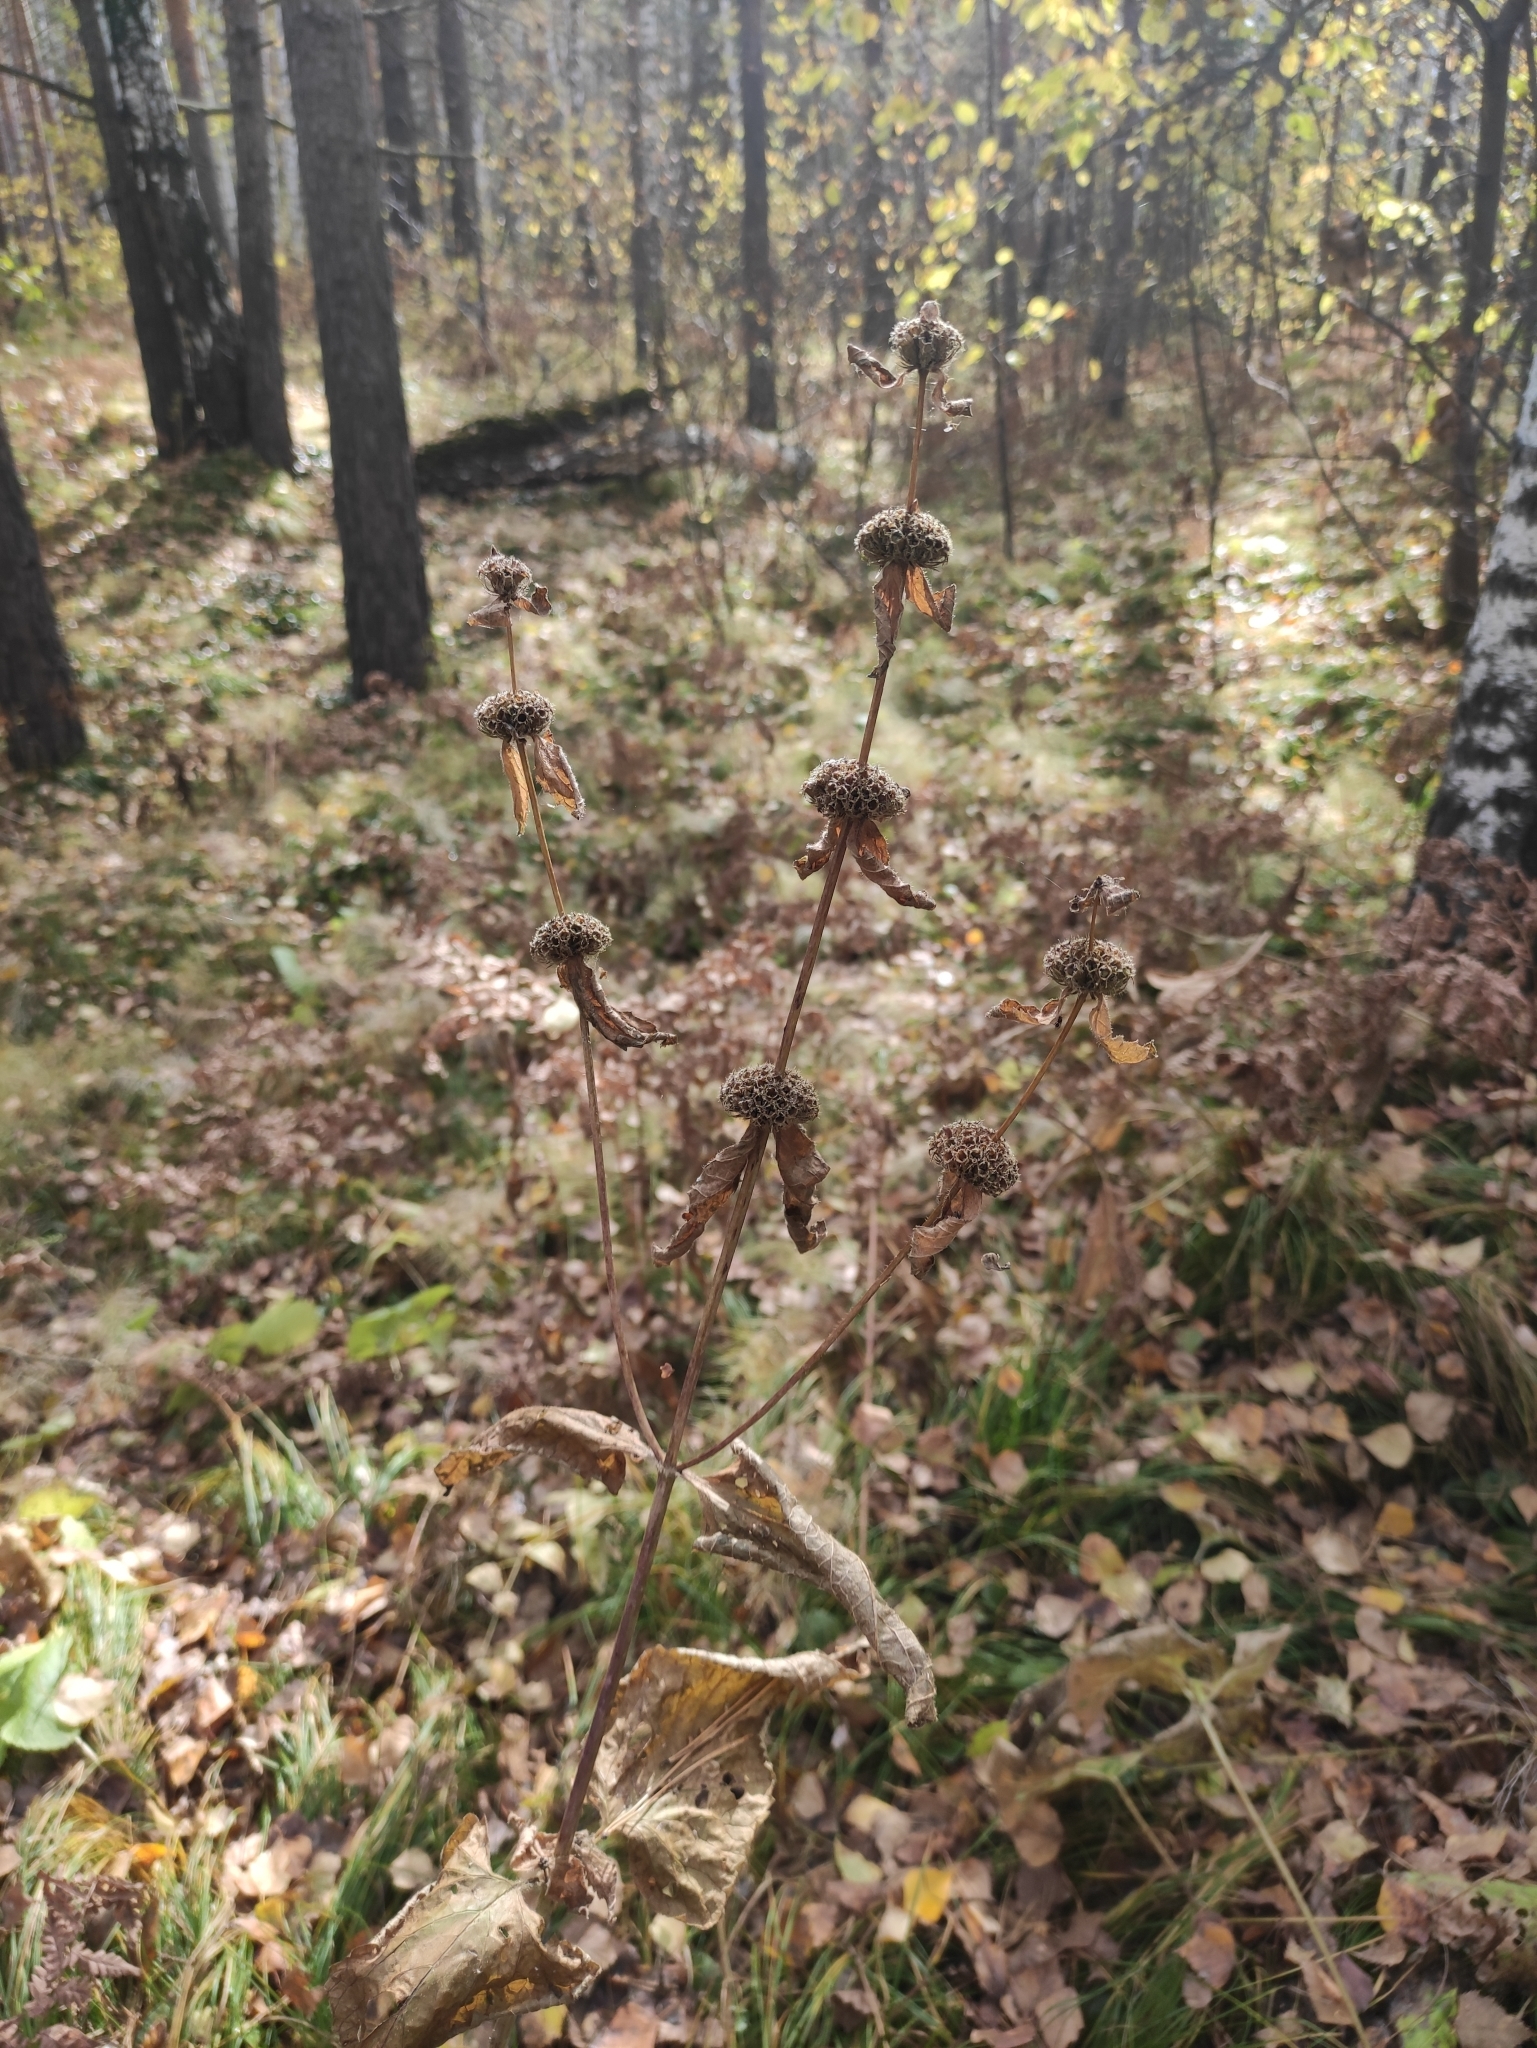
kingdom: Plantae
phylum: Tracheophyta
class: Magnoliopsida
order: Lamiales
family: Lamiaceae
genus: Phlomoides
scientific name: Phlomoides tuberosa
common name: Tuberous jerusalem sage
